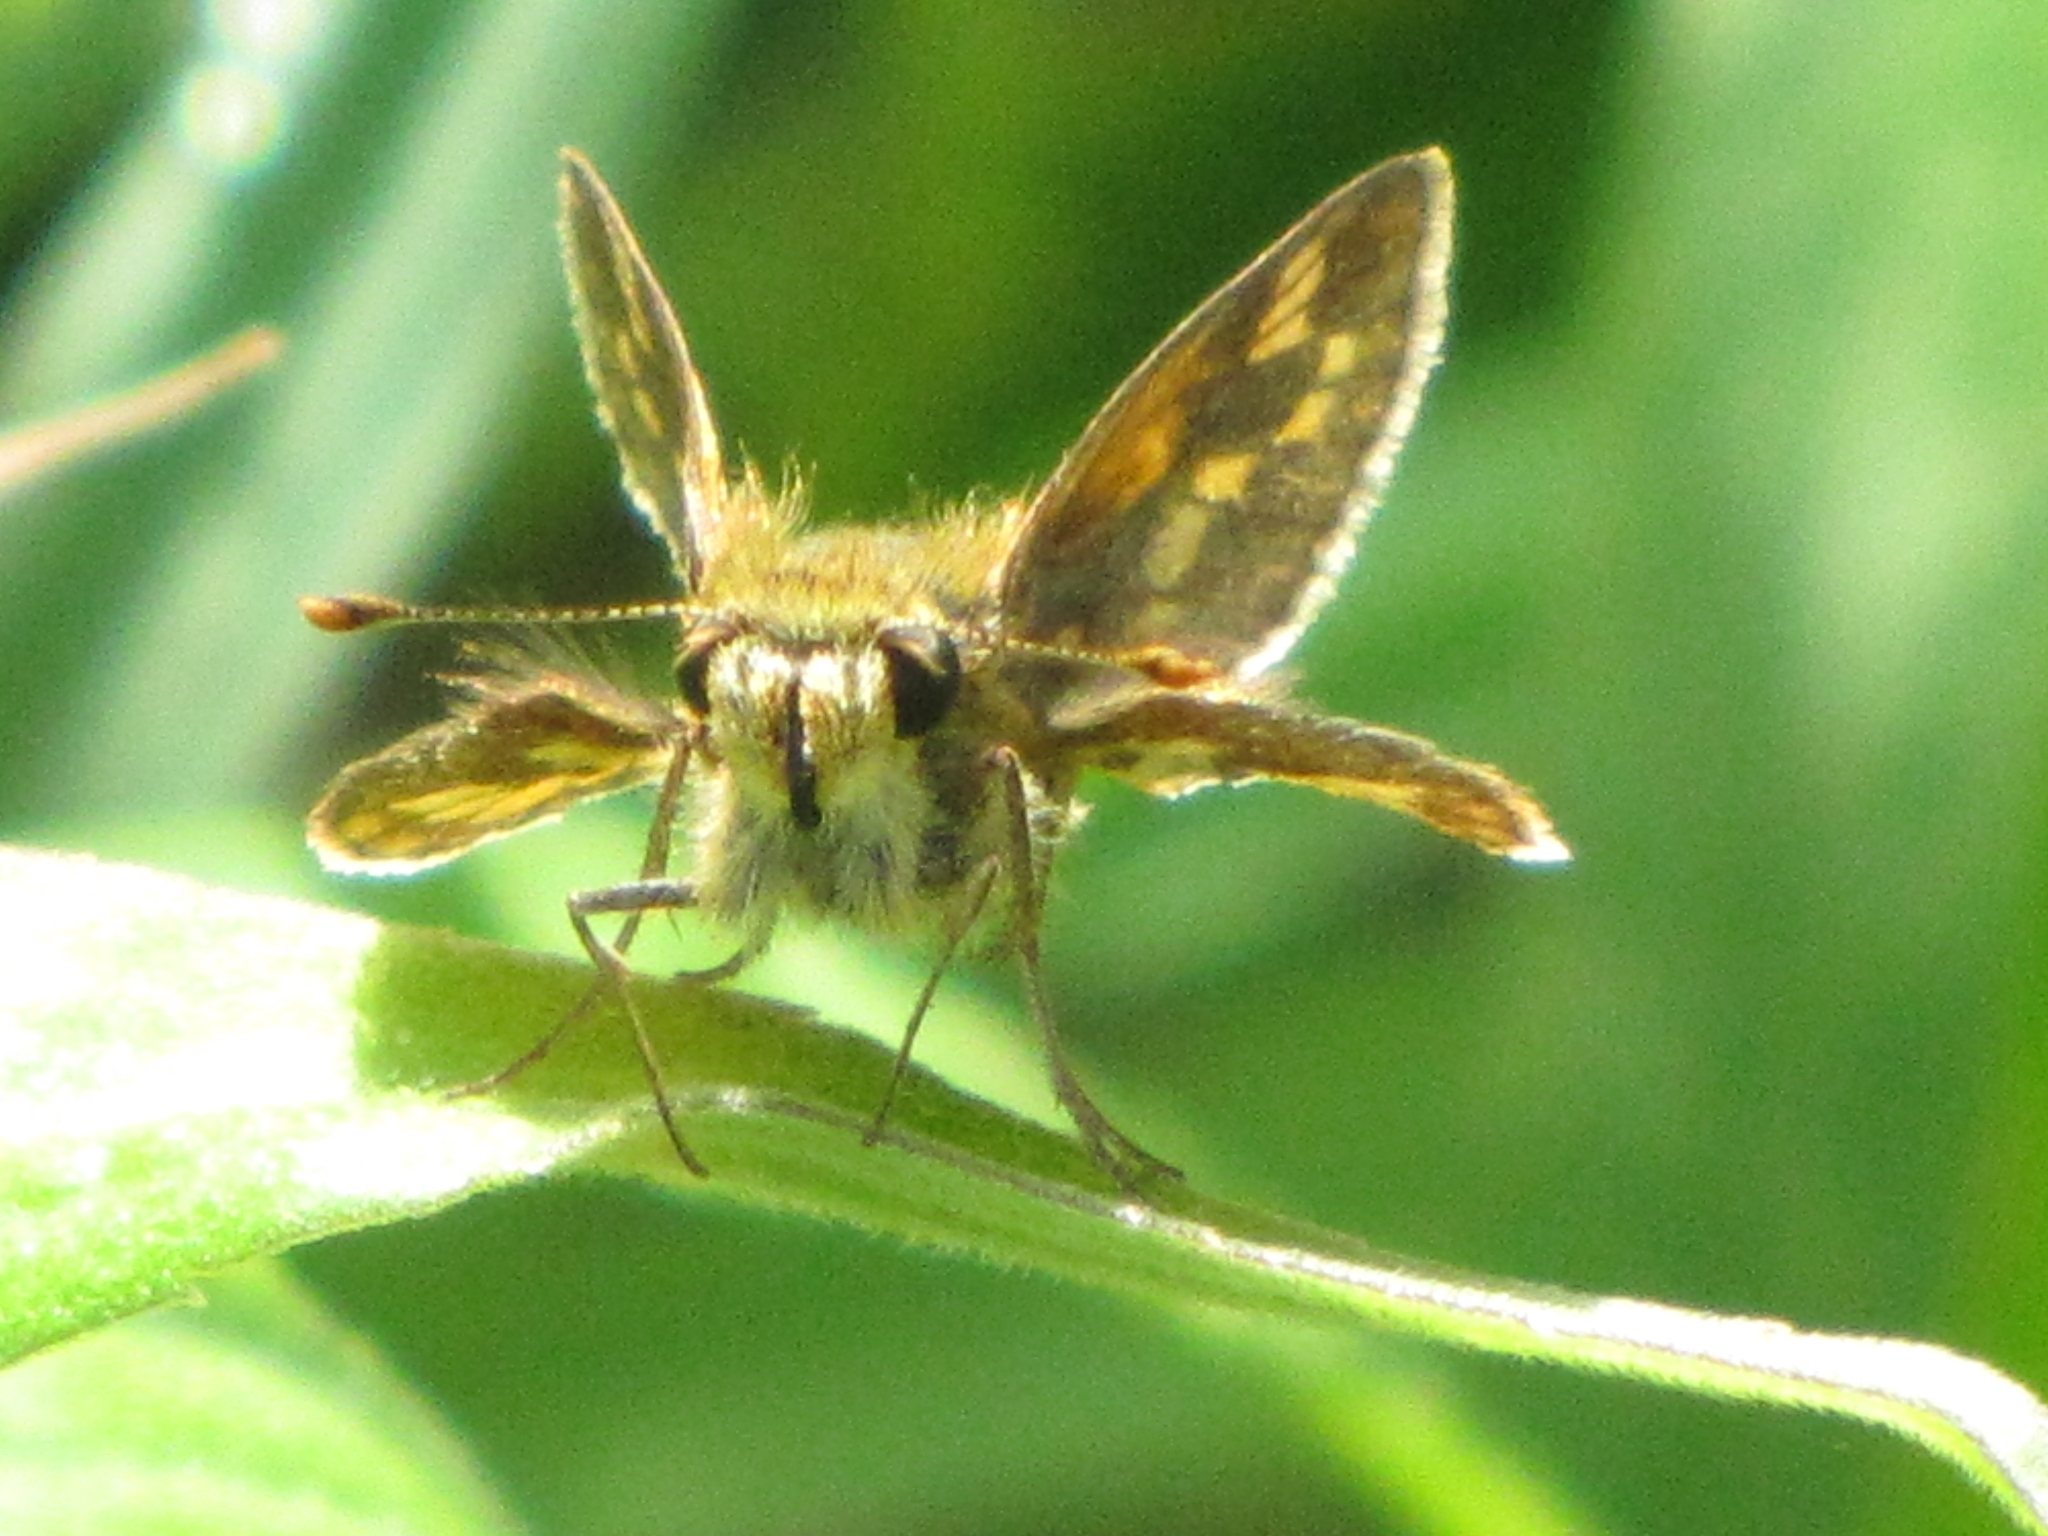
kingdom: Animalia
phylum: Arthropoda
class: Insecta
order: Lepidoptera
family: Hesperiidae
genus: Polites
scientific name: Polites coras
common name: Peck's skipper
